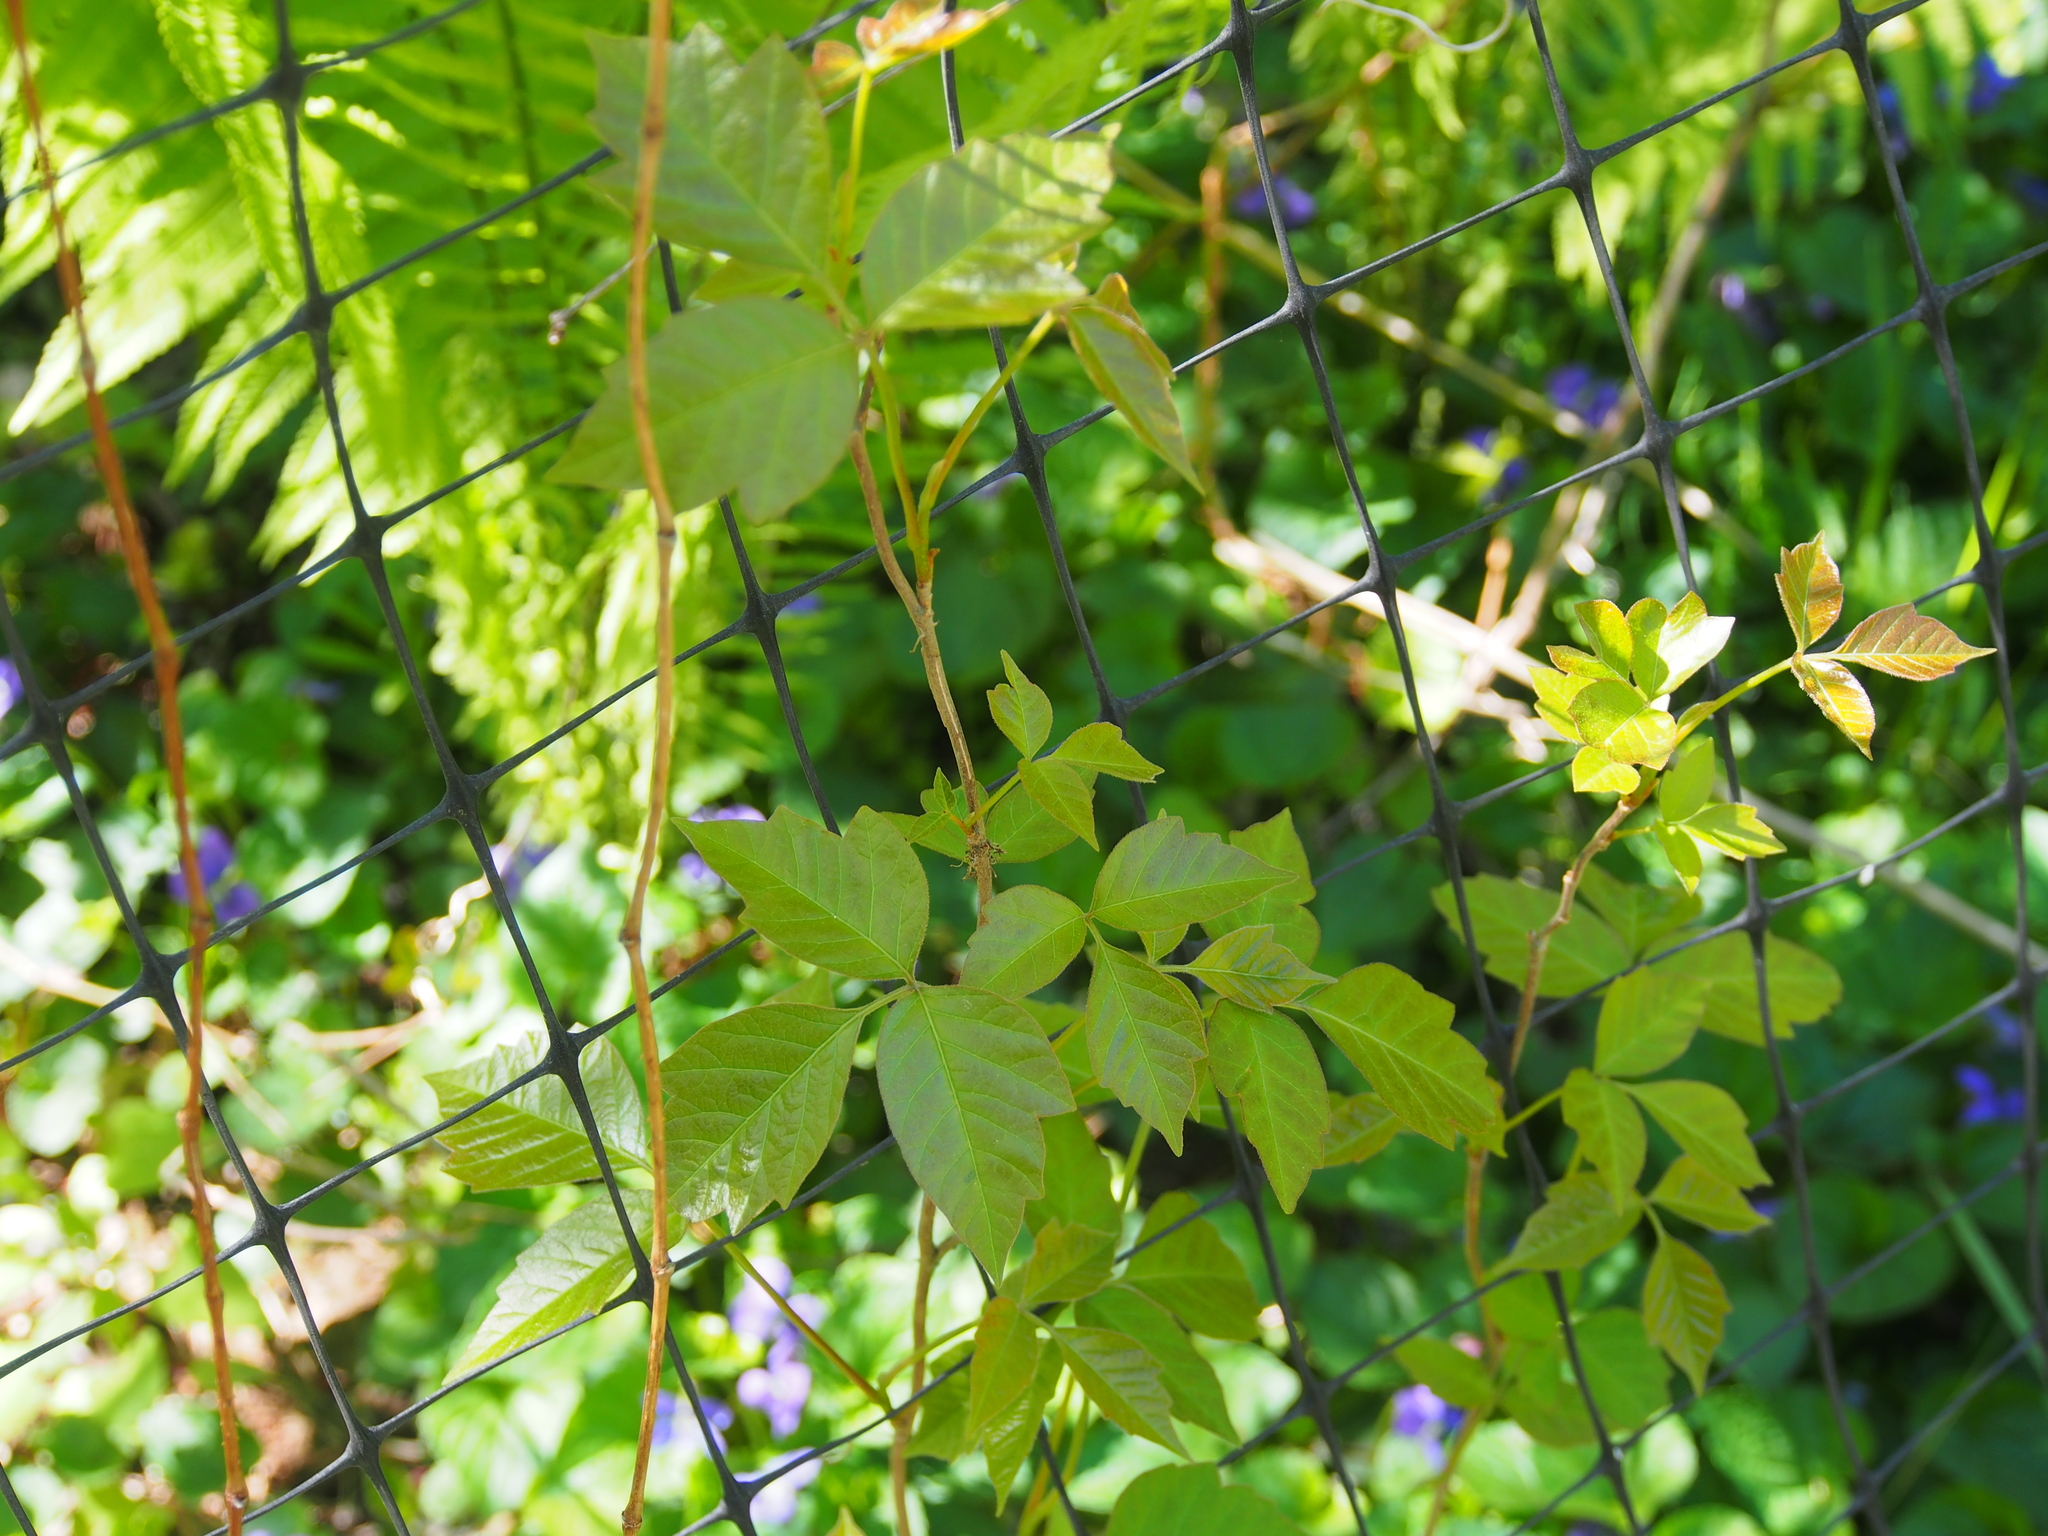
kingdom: Plantae
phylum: Tracheophyta
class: Magnoliopsida
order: Sapindales
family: Anacardiaceae
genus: Toxicodendron
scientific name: Toxicodendron radicans
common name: Poison ivy
